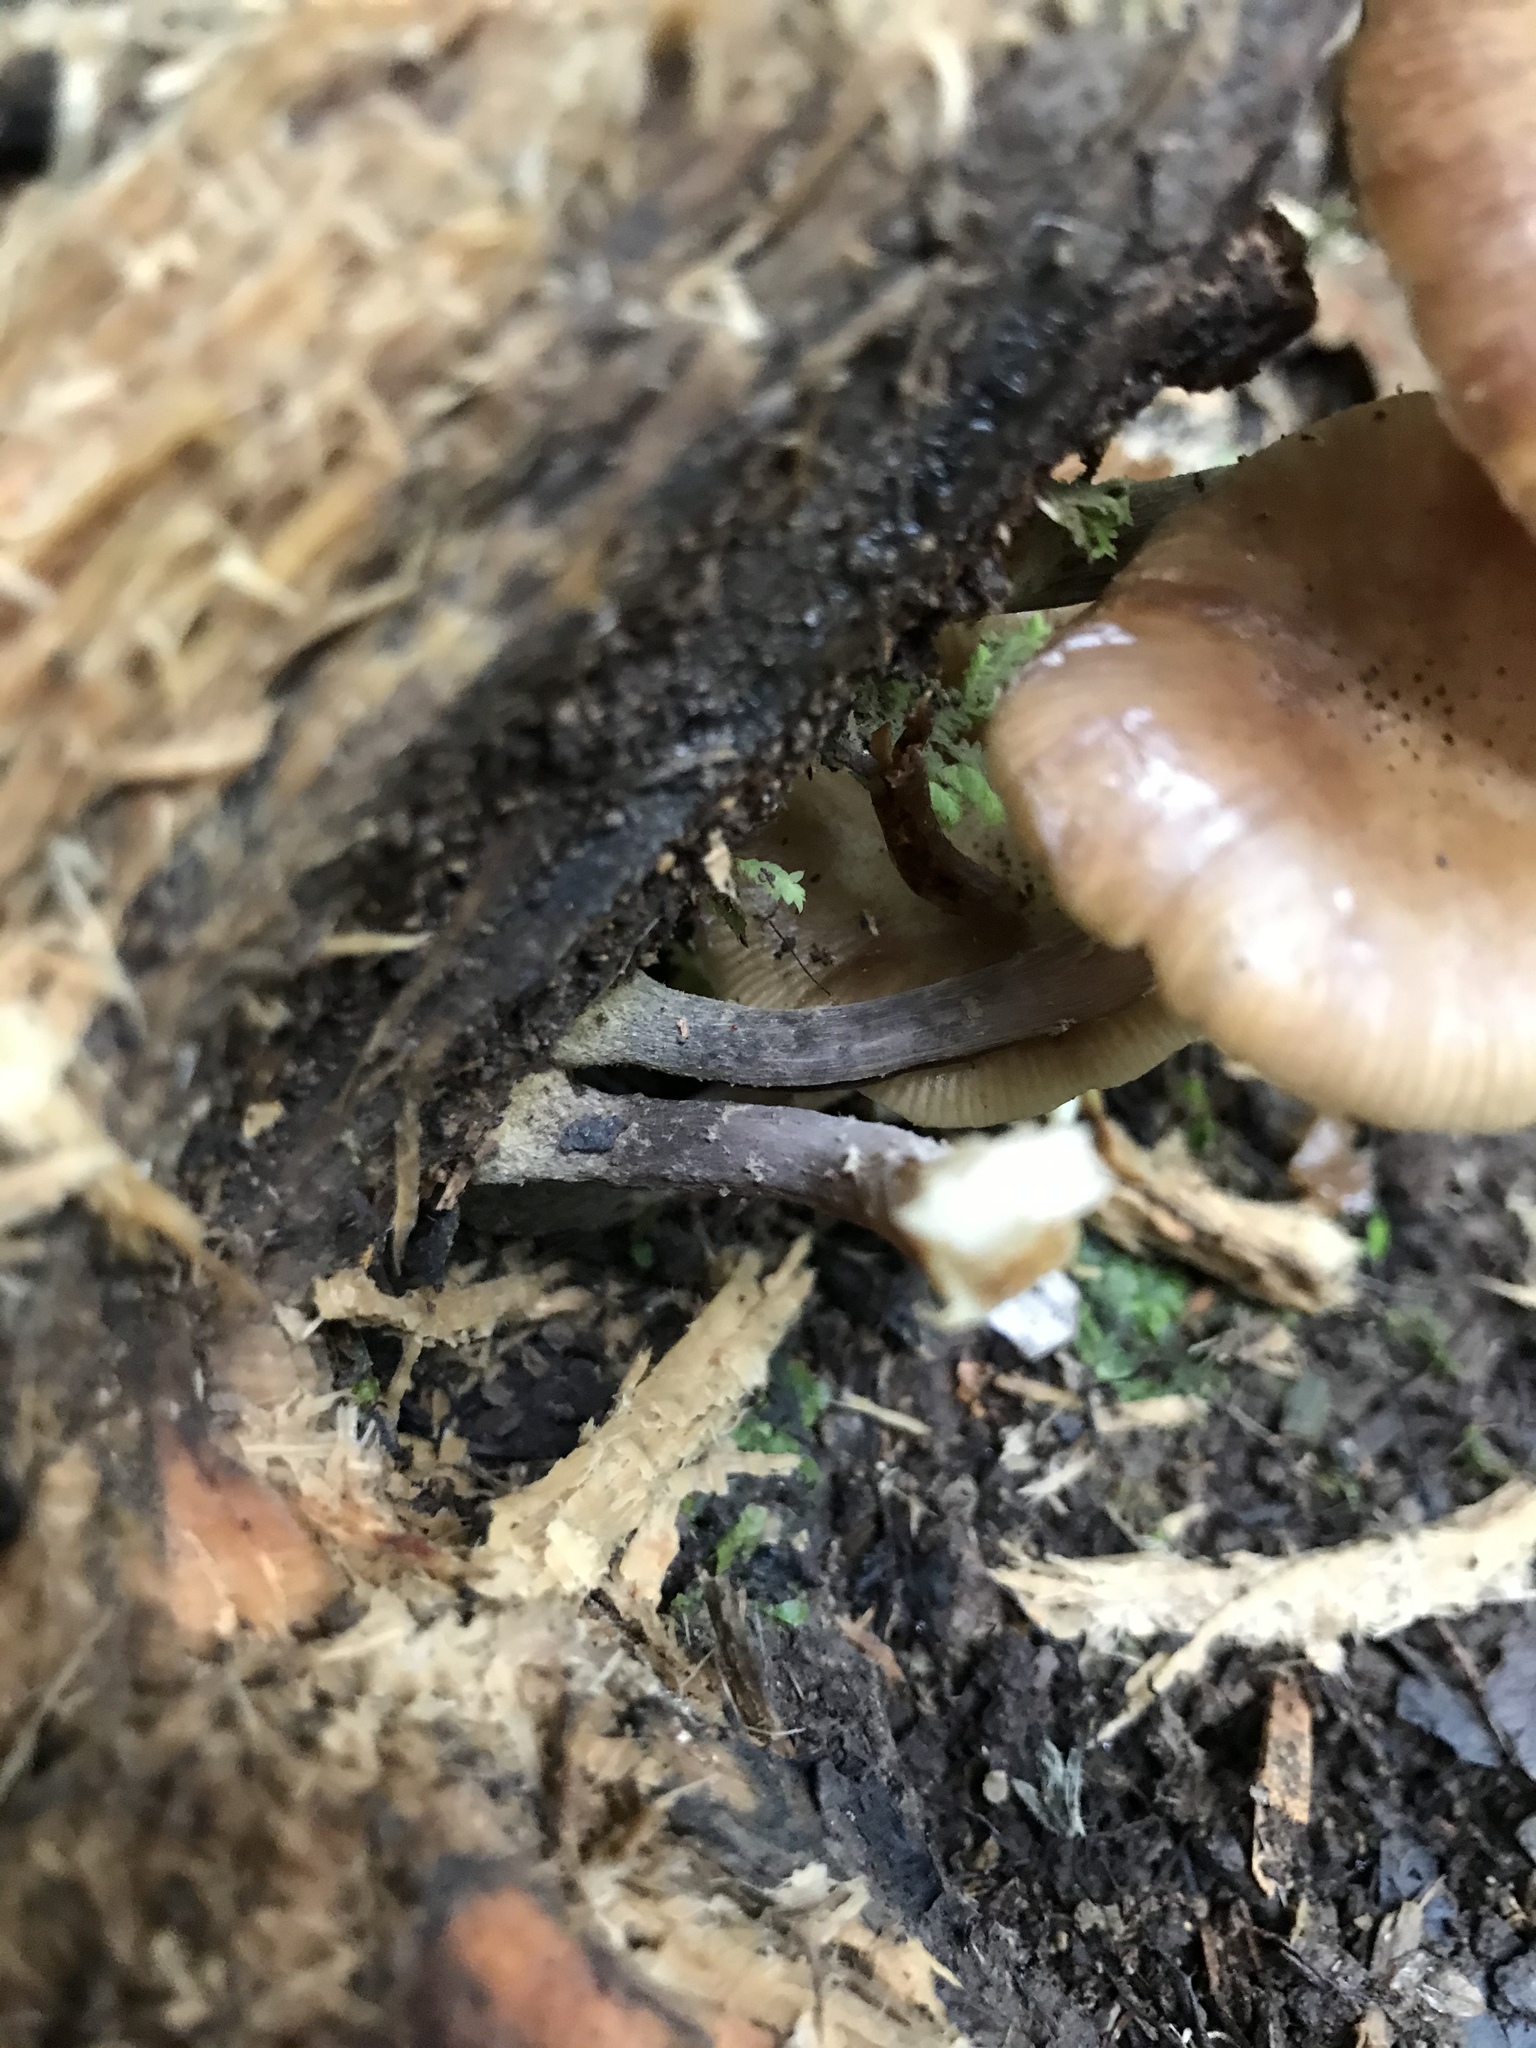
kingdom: Fungi
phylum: Basidiomycota
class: Agaricomycetes
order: Agaricales
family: Physalacriaceae
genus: Armillaria
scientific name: Armillaria novae-zelandiae
